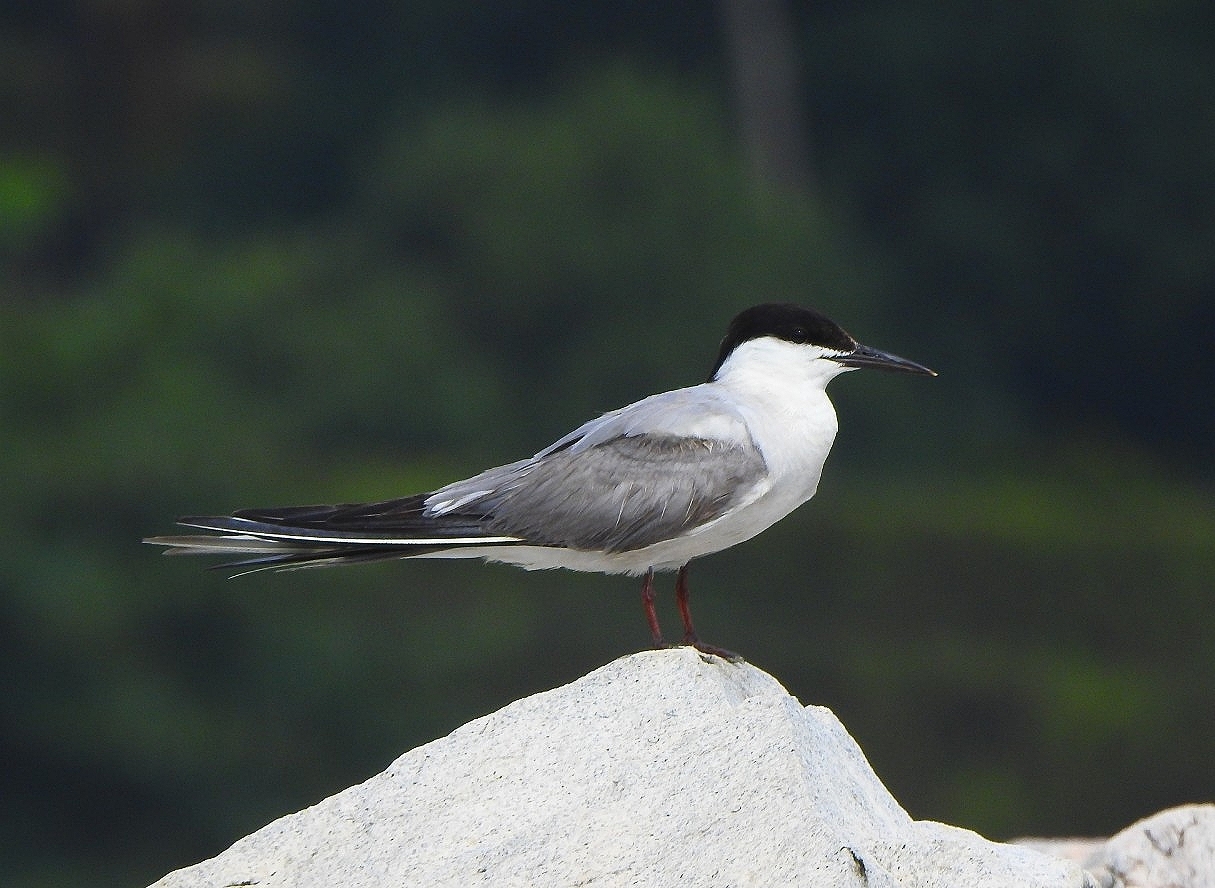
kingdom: Animalia
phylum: Chordata
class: Aves
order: Charadriiformes
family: Laridae
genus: Sterna
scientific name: Sterna hirundo
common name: Common tern
